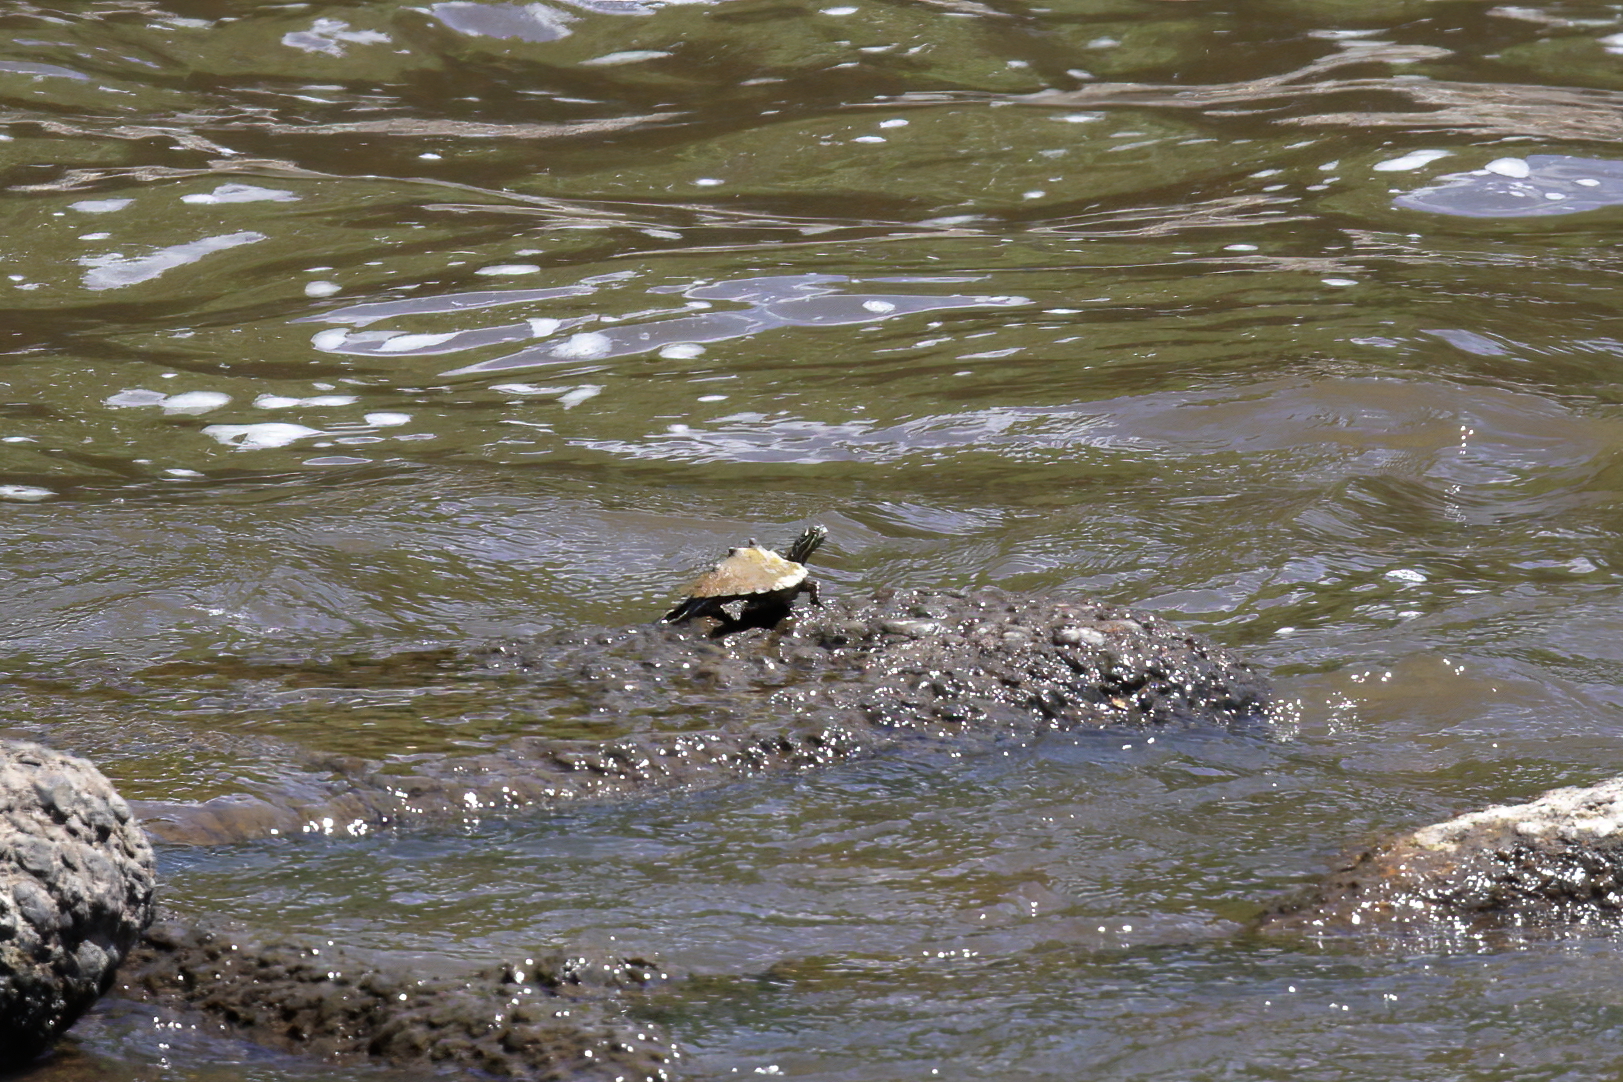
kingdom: Animalia
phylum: Chordata
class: Testudines
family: Emydidae
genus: Graptemys
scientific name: Graptemys oculifera
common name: Ringed map turtle
